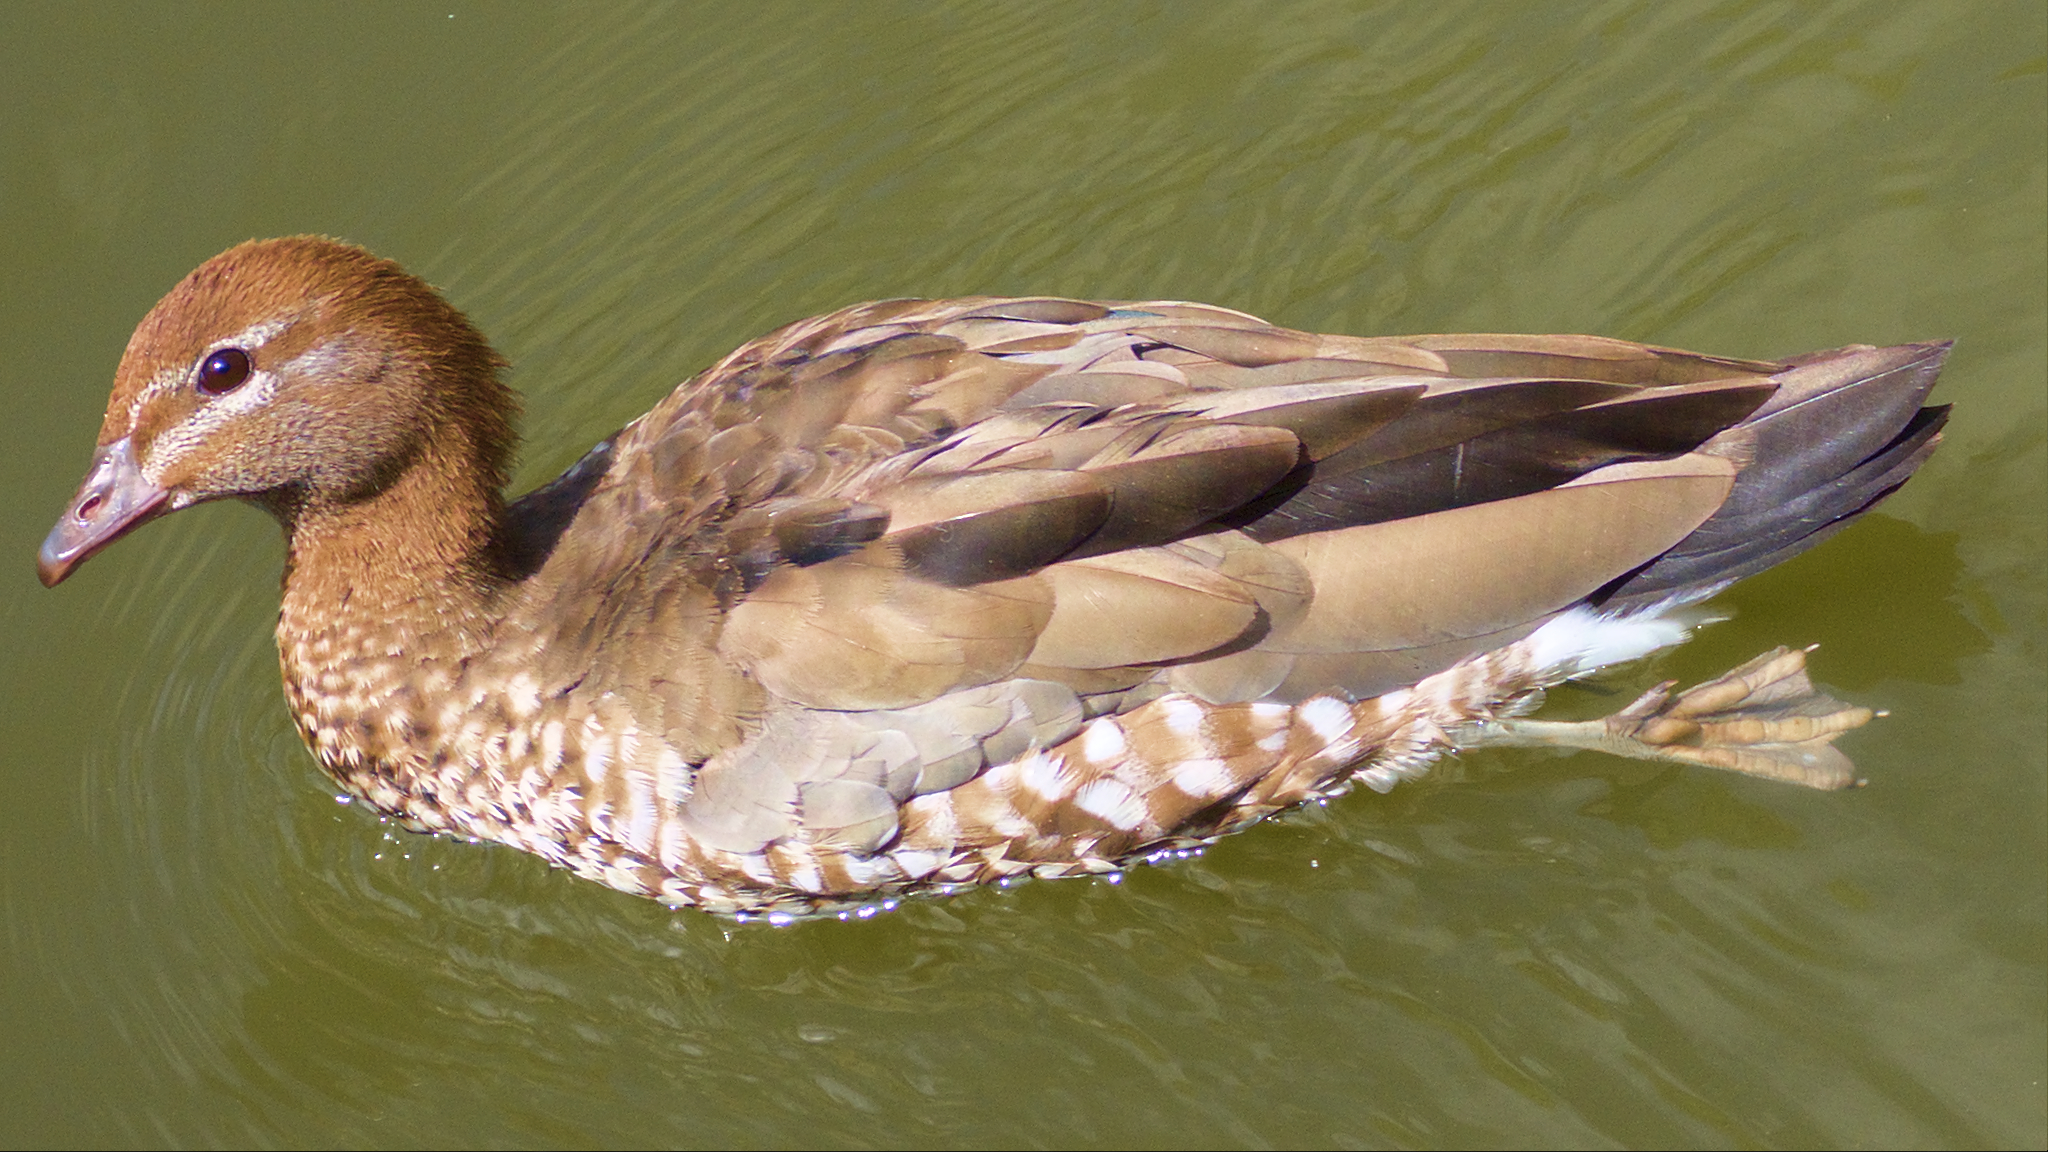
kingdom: Animalia
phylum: Chordata
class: Aves
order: Anseriformes
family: Anatidae
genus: Chenonetta
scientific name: Chenonetta jubata
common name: Maned duck
